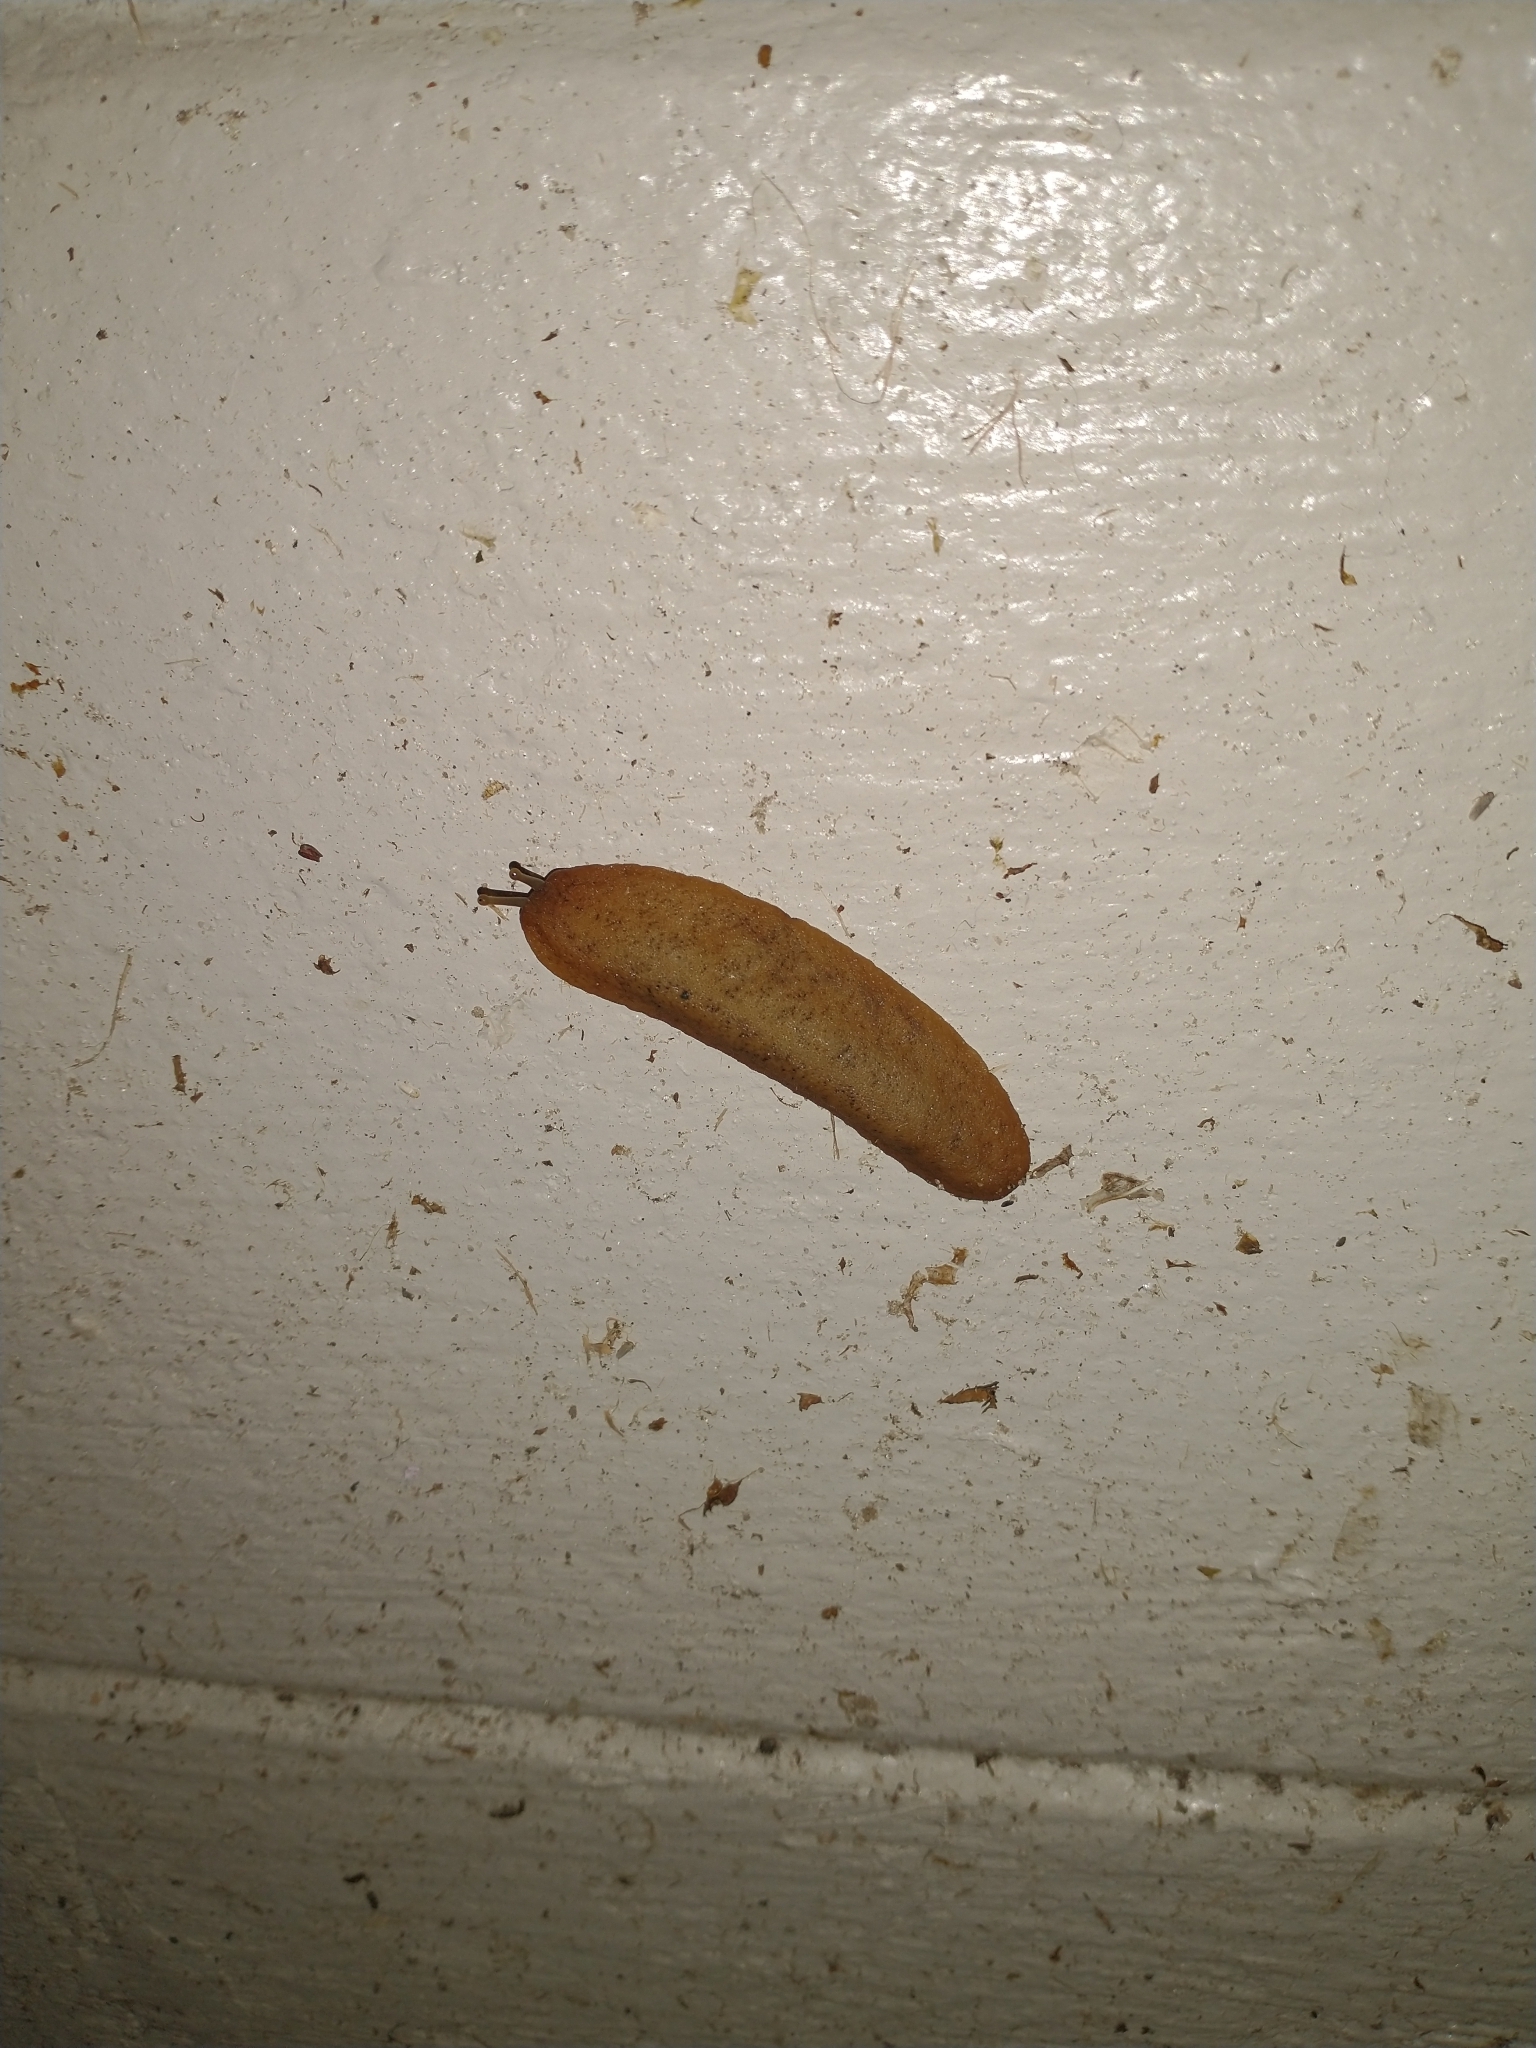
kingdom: Animalia
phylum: Mollusca
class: Gastropoda
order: Systellommatophora
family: Veronicellidae
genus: Sarasinula
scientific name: Sarasinula plebeia
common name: Caribbean leatherleaf
